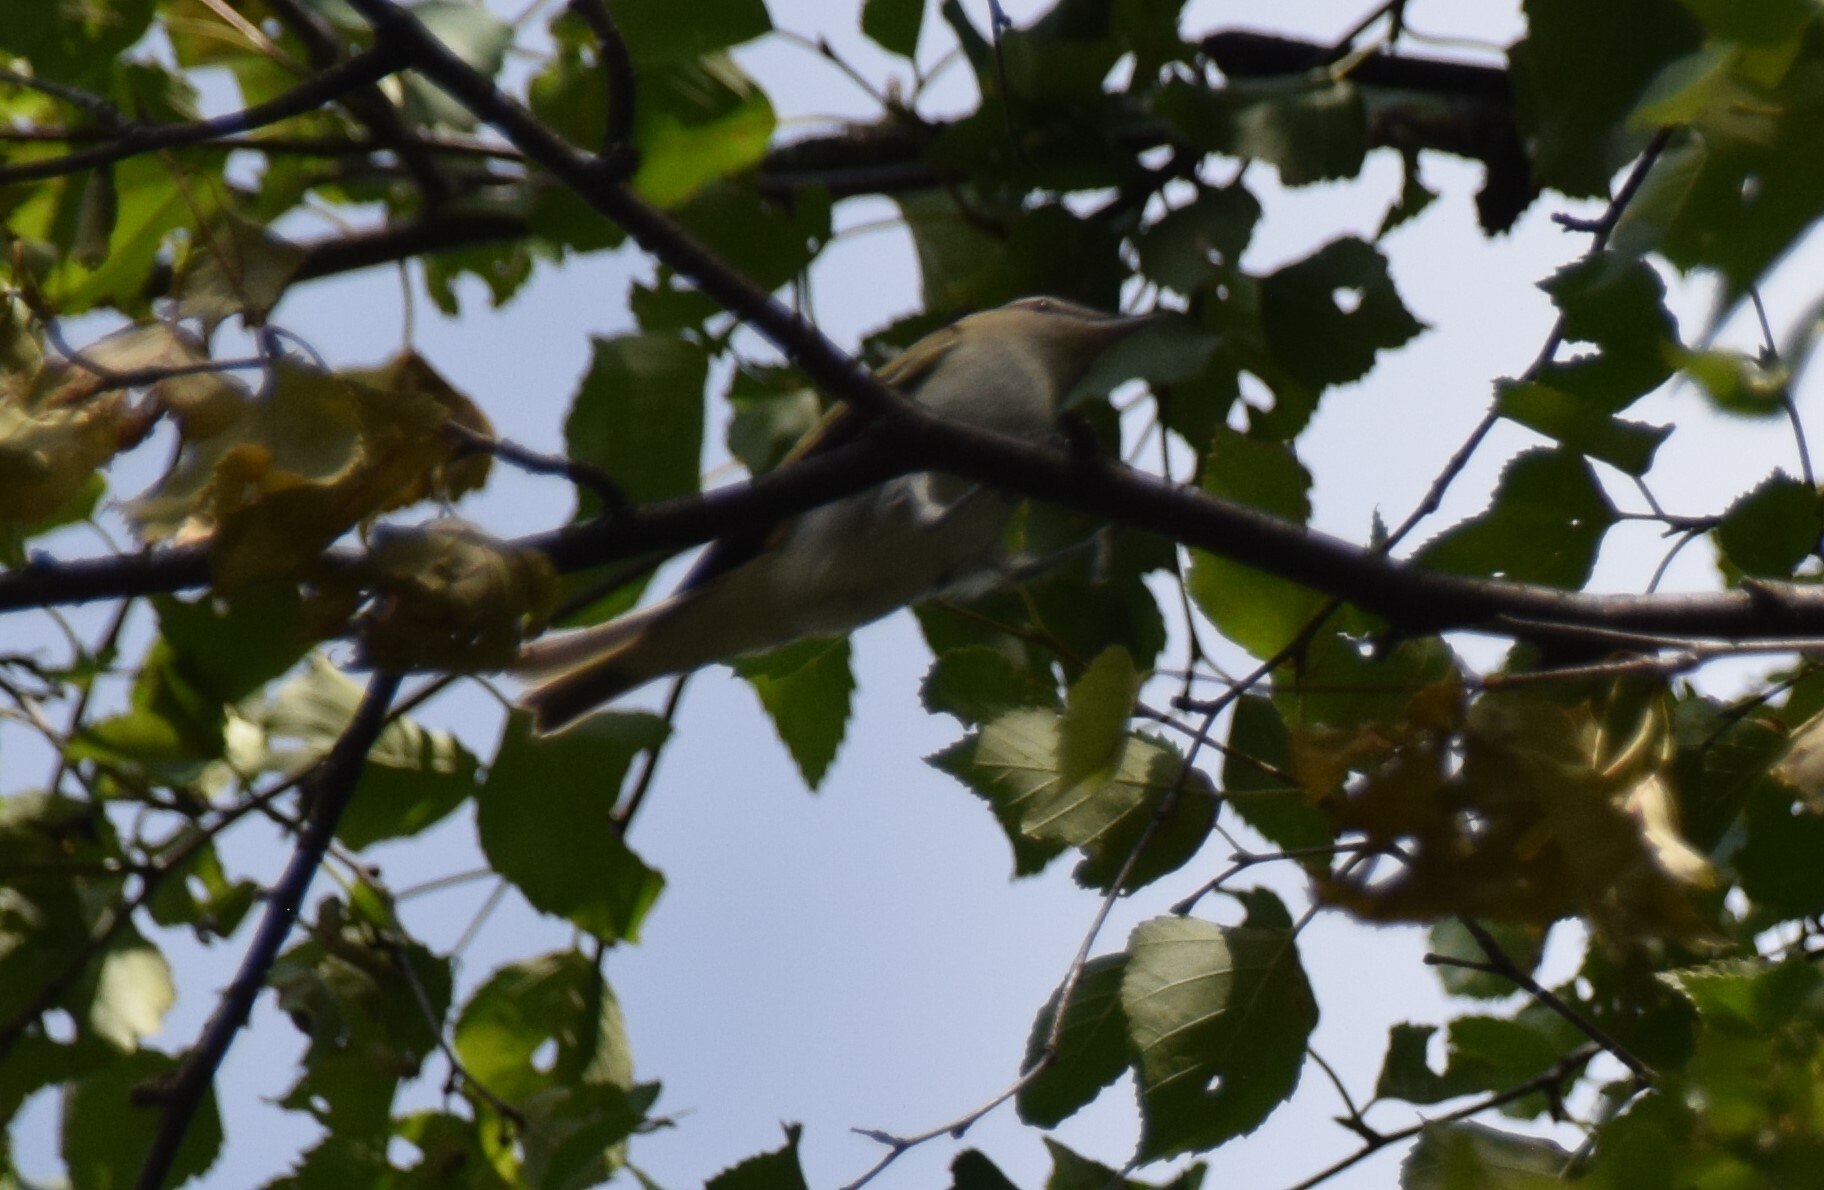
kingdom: Animalia
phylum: Chordata
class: Aves
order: Passeriformes
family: Vireonidae
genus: Vireo
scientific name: Vireo olivaceus
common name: Red-eyed vireo
